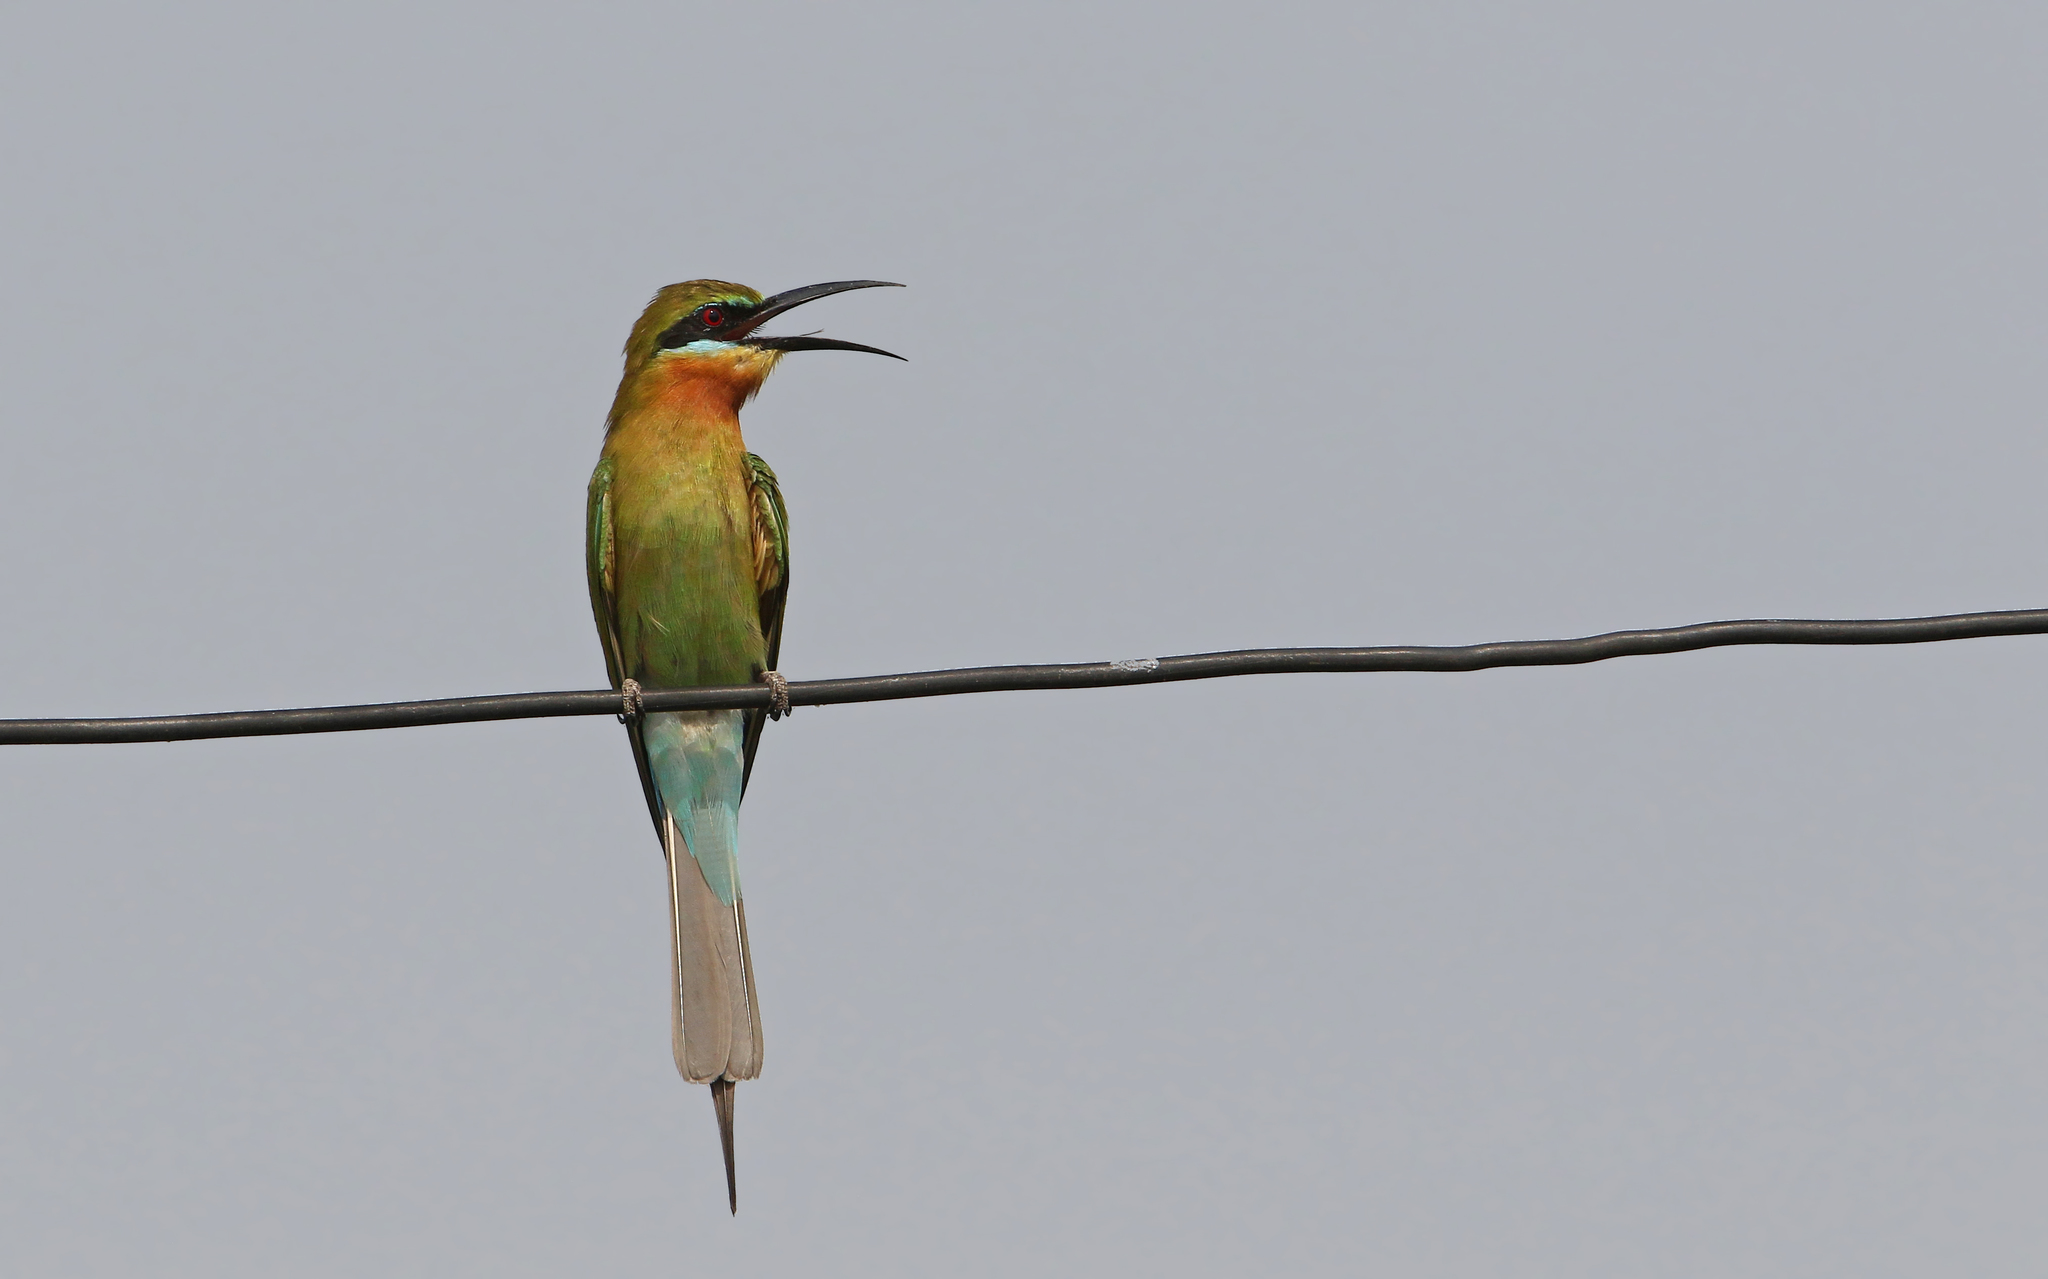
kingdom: Animalia
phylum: Chordata
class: Aves
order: Coraciiformes
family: Meropidae
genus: Merops
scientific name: Merops philippinus
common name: Blue-tailed bee-eater
